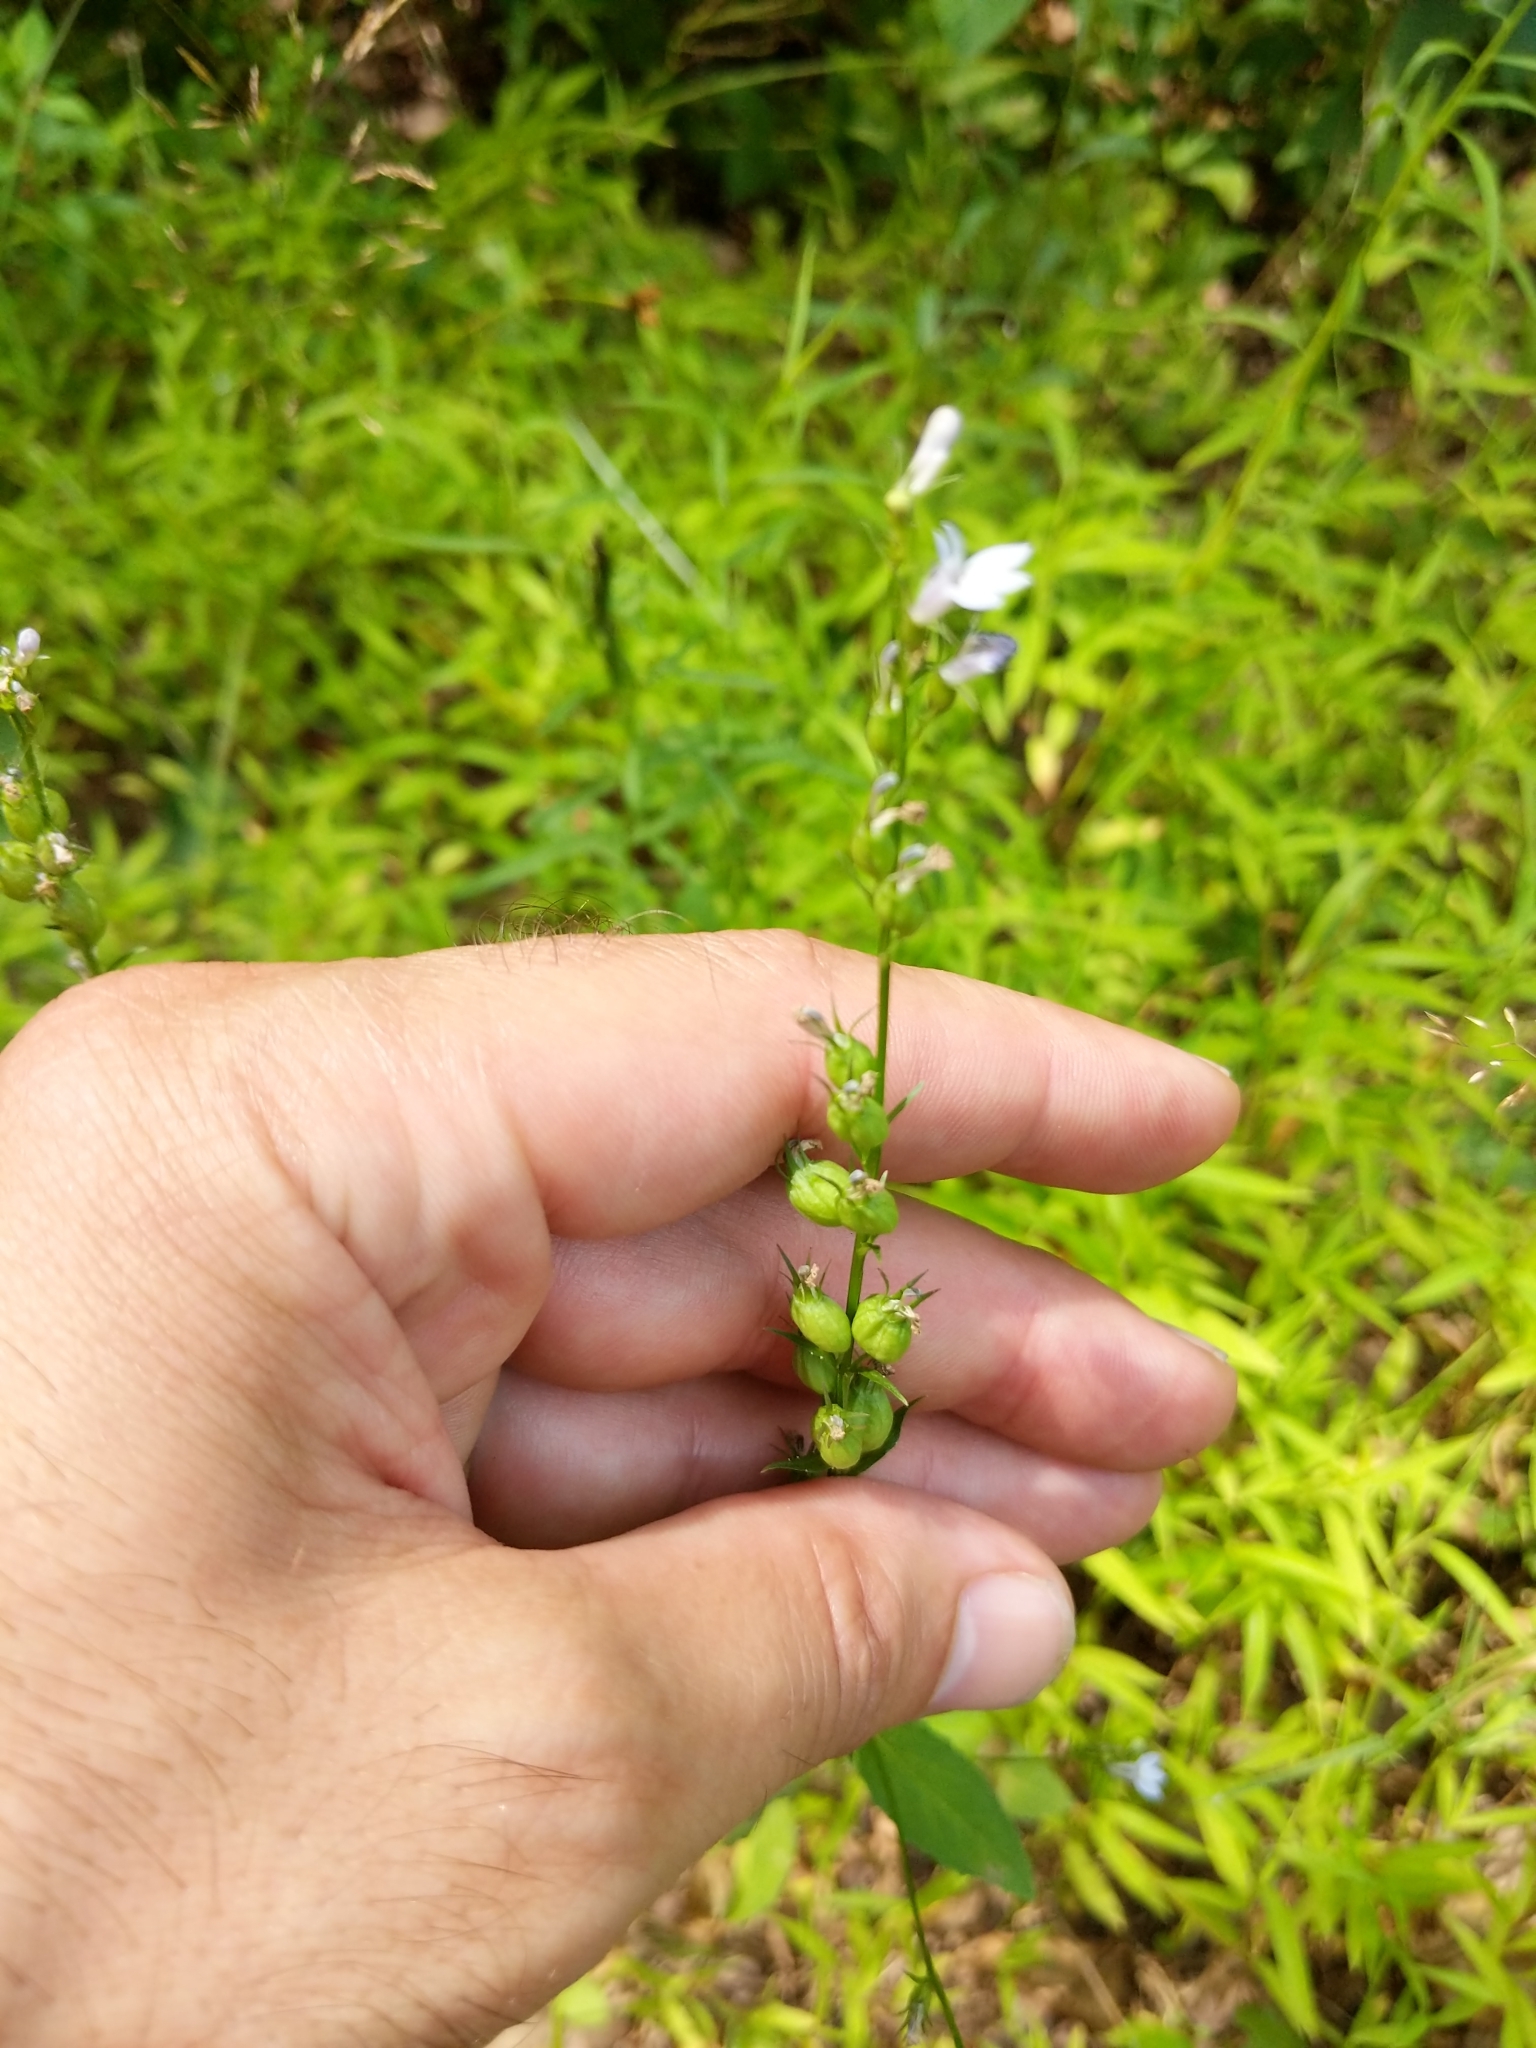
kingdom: Plantae
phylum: Tracheophyta
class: Magnoliopsida
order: Asterales
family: Campanulaceae
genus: Lobelia
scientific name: Lobelia inflata
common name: Indian tobacco
